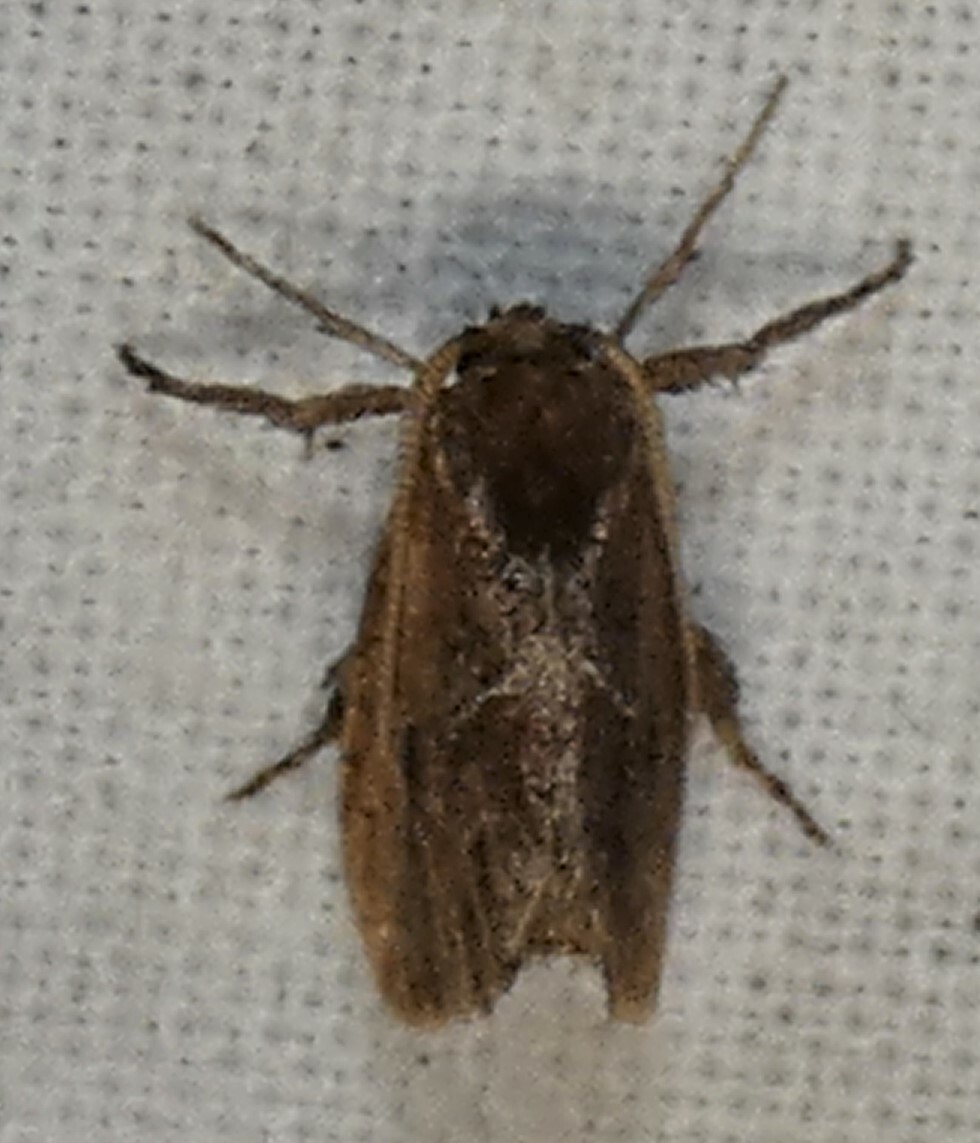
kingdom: Animalia
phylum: Arthropoda
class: Insecta
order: Lepidoptera
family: Limacodidae
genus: Adoneta
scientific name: Adoneta spinuloides
